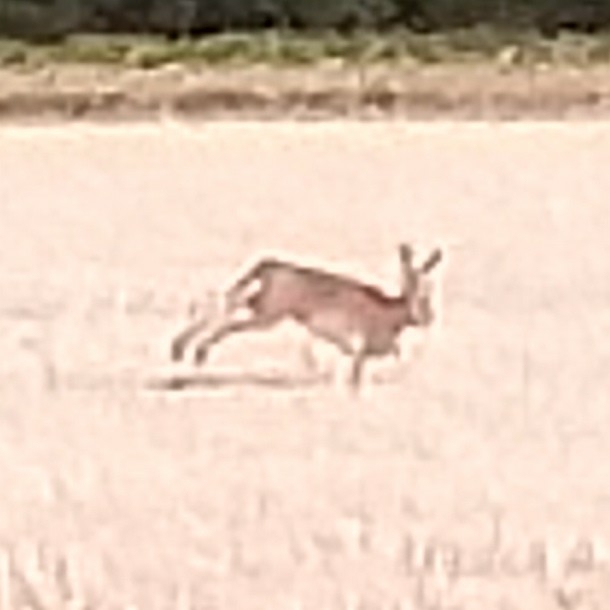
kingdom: Animalia
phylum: Chordata
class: Mammalia
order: Lagomorpha
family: Leporidae
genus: Lepus
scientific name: Lepus europaeus
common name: European hare
